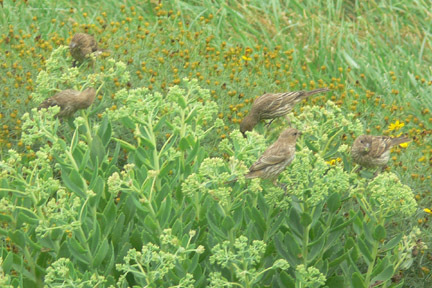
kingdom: Animalia
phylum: Chordata
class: Aves
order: Passeriformes
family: Fringillidae
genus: Haemorhous
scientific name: Haemorhous mexicanus
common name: House finch
